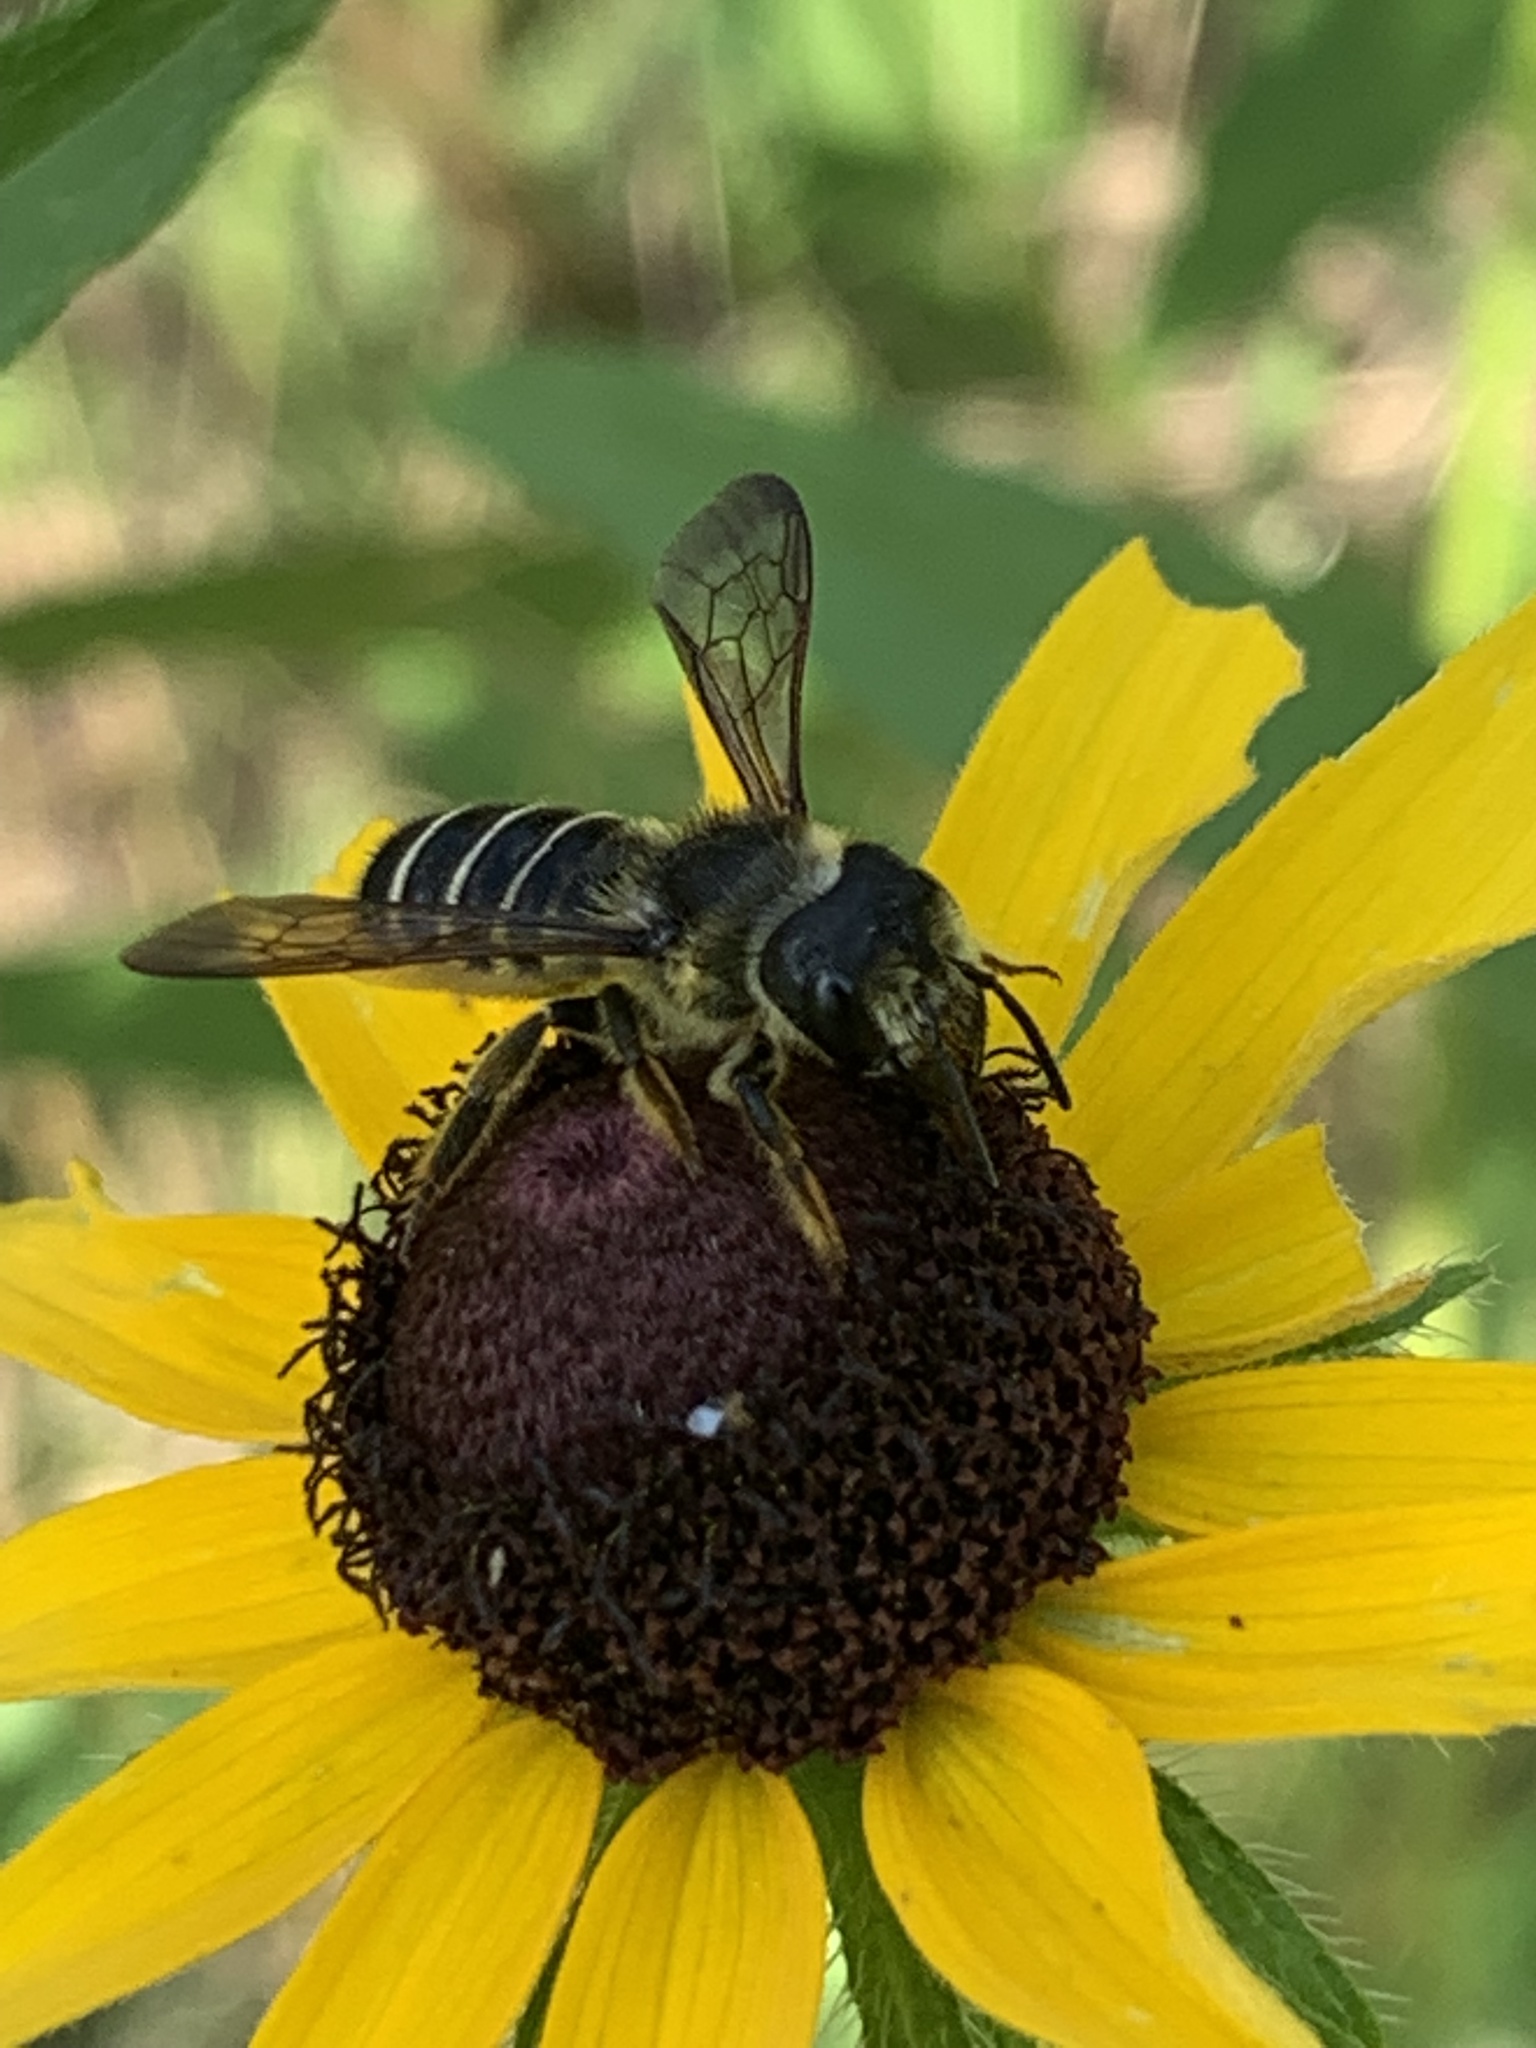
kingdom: Animalia
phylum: Arthropoda
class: Insecta
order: Hymenoptera
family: Megachilidae
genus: Megachile
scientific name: Megachile pugnata
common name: Pugnacious leafcutter bee
